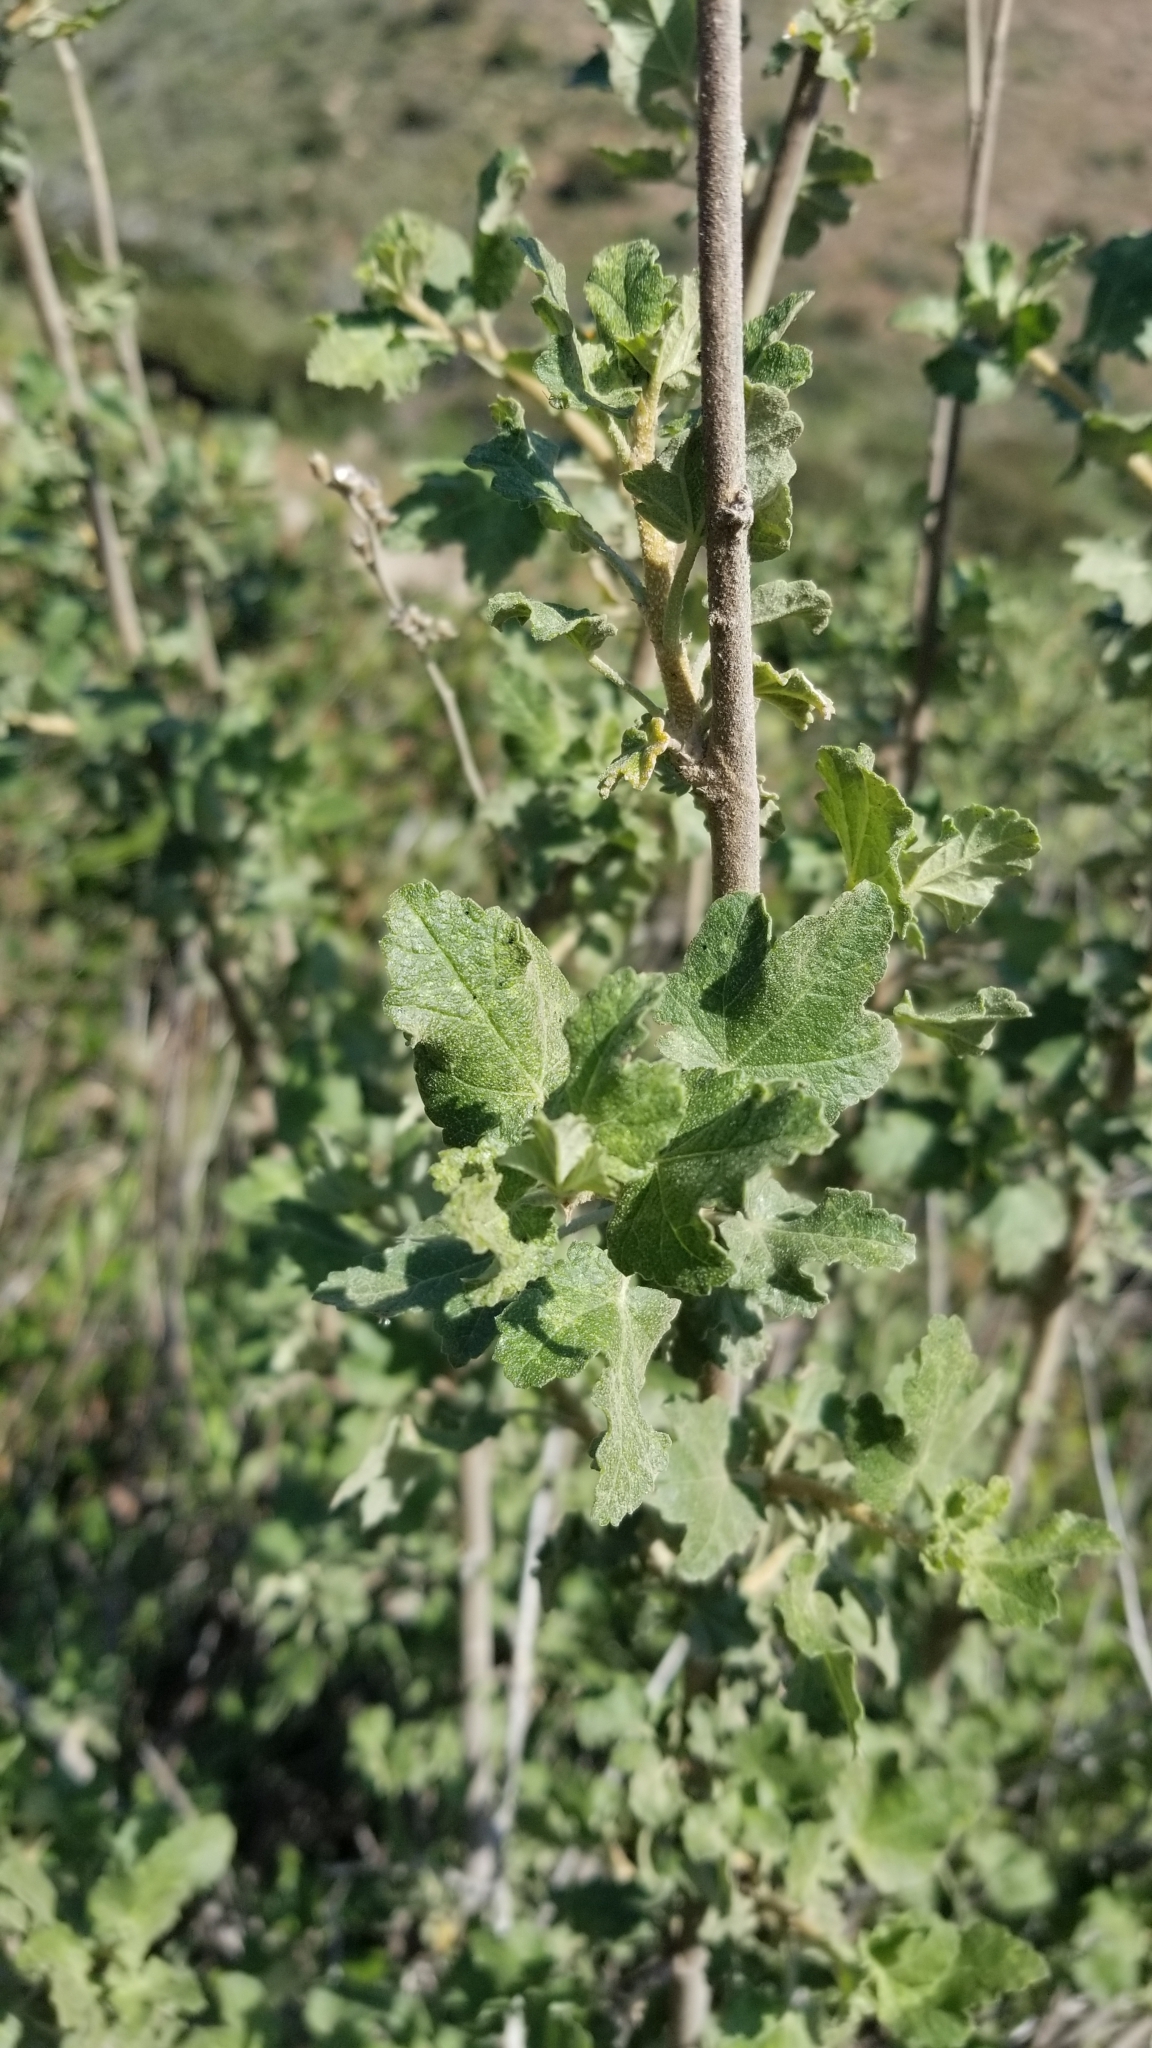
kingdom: Plantae
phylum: Tracheophyta
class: Magnoliopsida
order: Malvales
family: Malvaceae
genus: Malacothamnus
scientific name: Malacothamnus fasciculatus
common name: Sant cruz island bush-mallow
